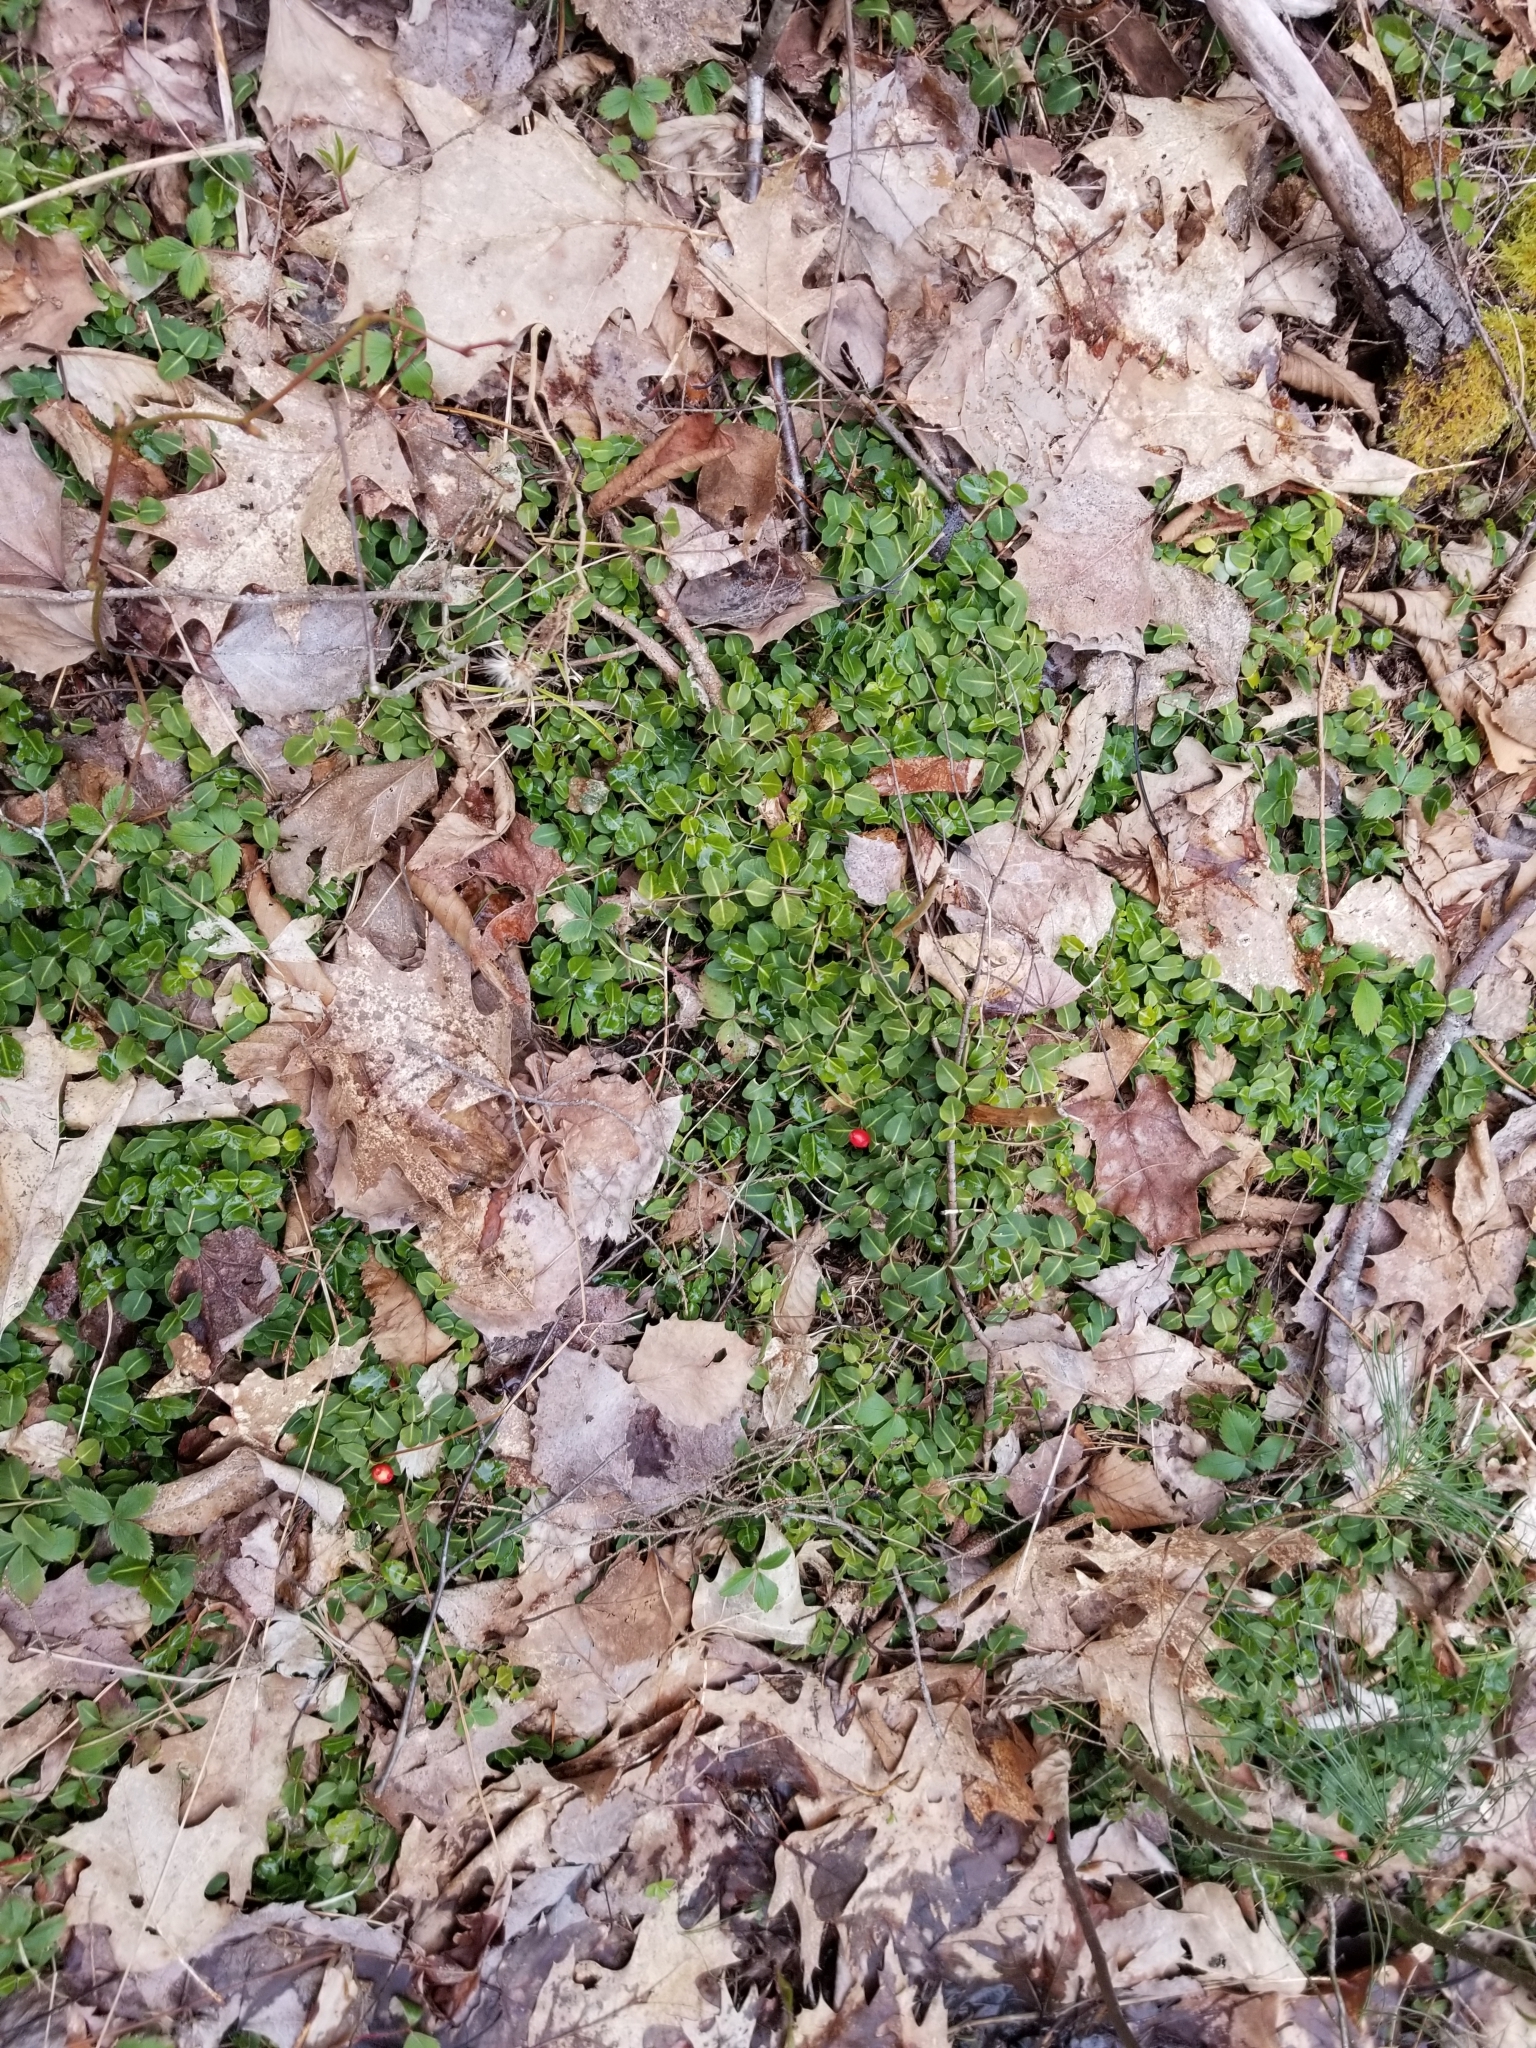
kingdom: Plantae
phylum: Tracheophyta
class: Magnoliopsida
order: Gentianales
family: Rubiaceae
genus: Mitchella
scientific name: Mitchella repens
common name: Partridge-berry
